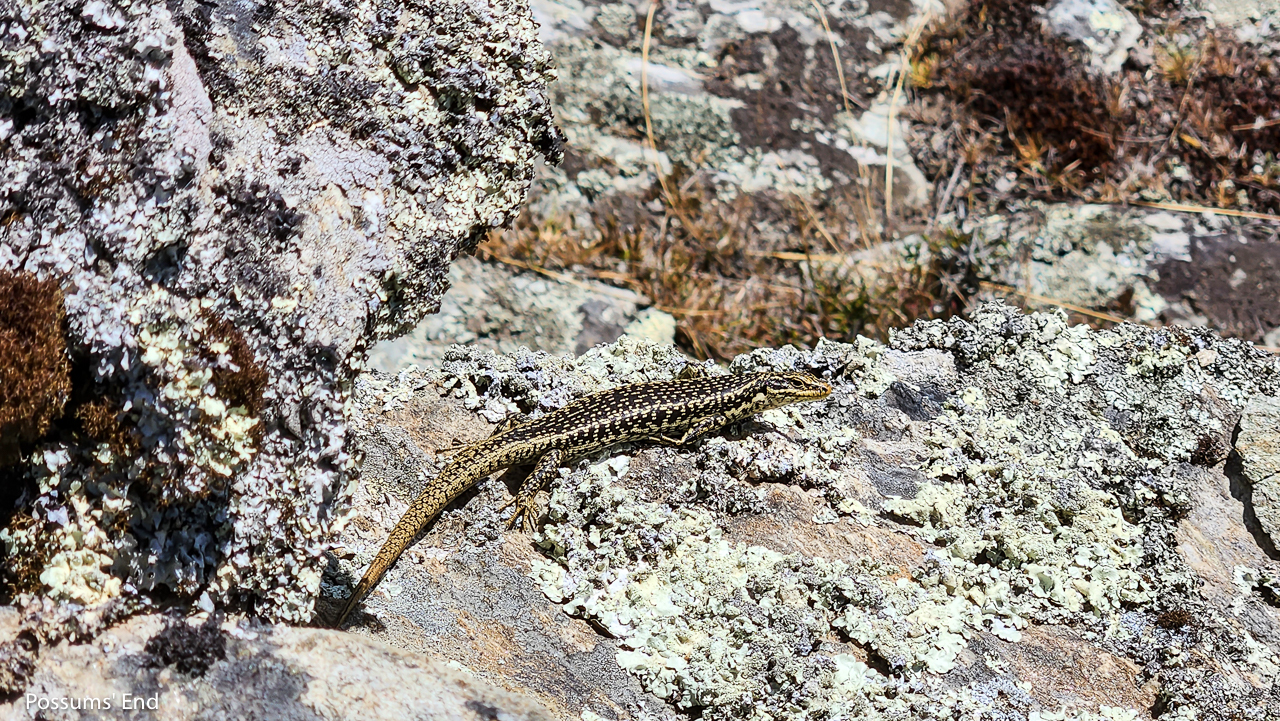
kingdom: Animalia
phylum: Chordata
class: Squamata
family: Scincidae
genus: Oligosoma
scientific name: Oligosoma grande
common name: Grand skink
